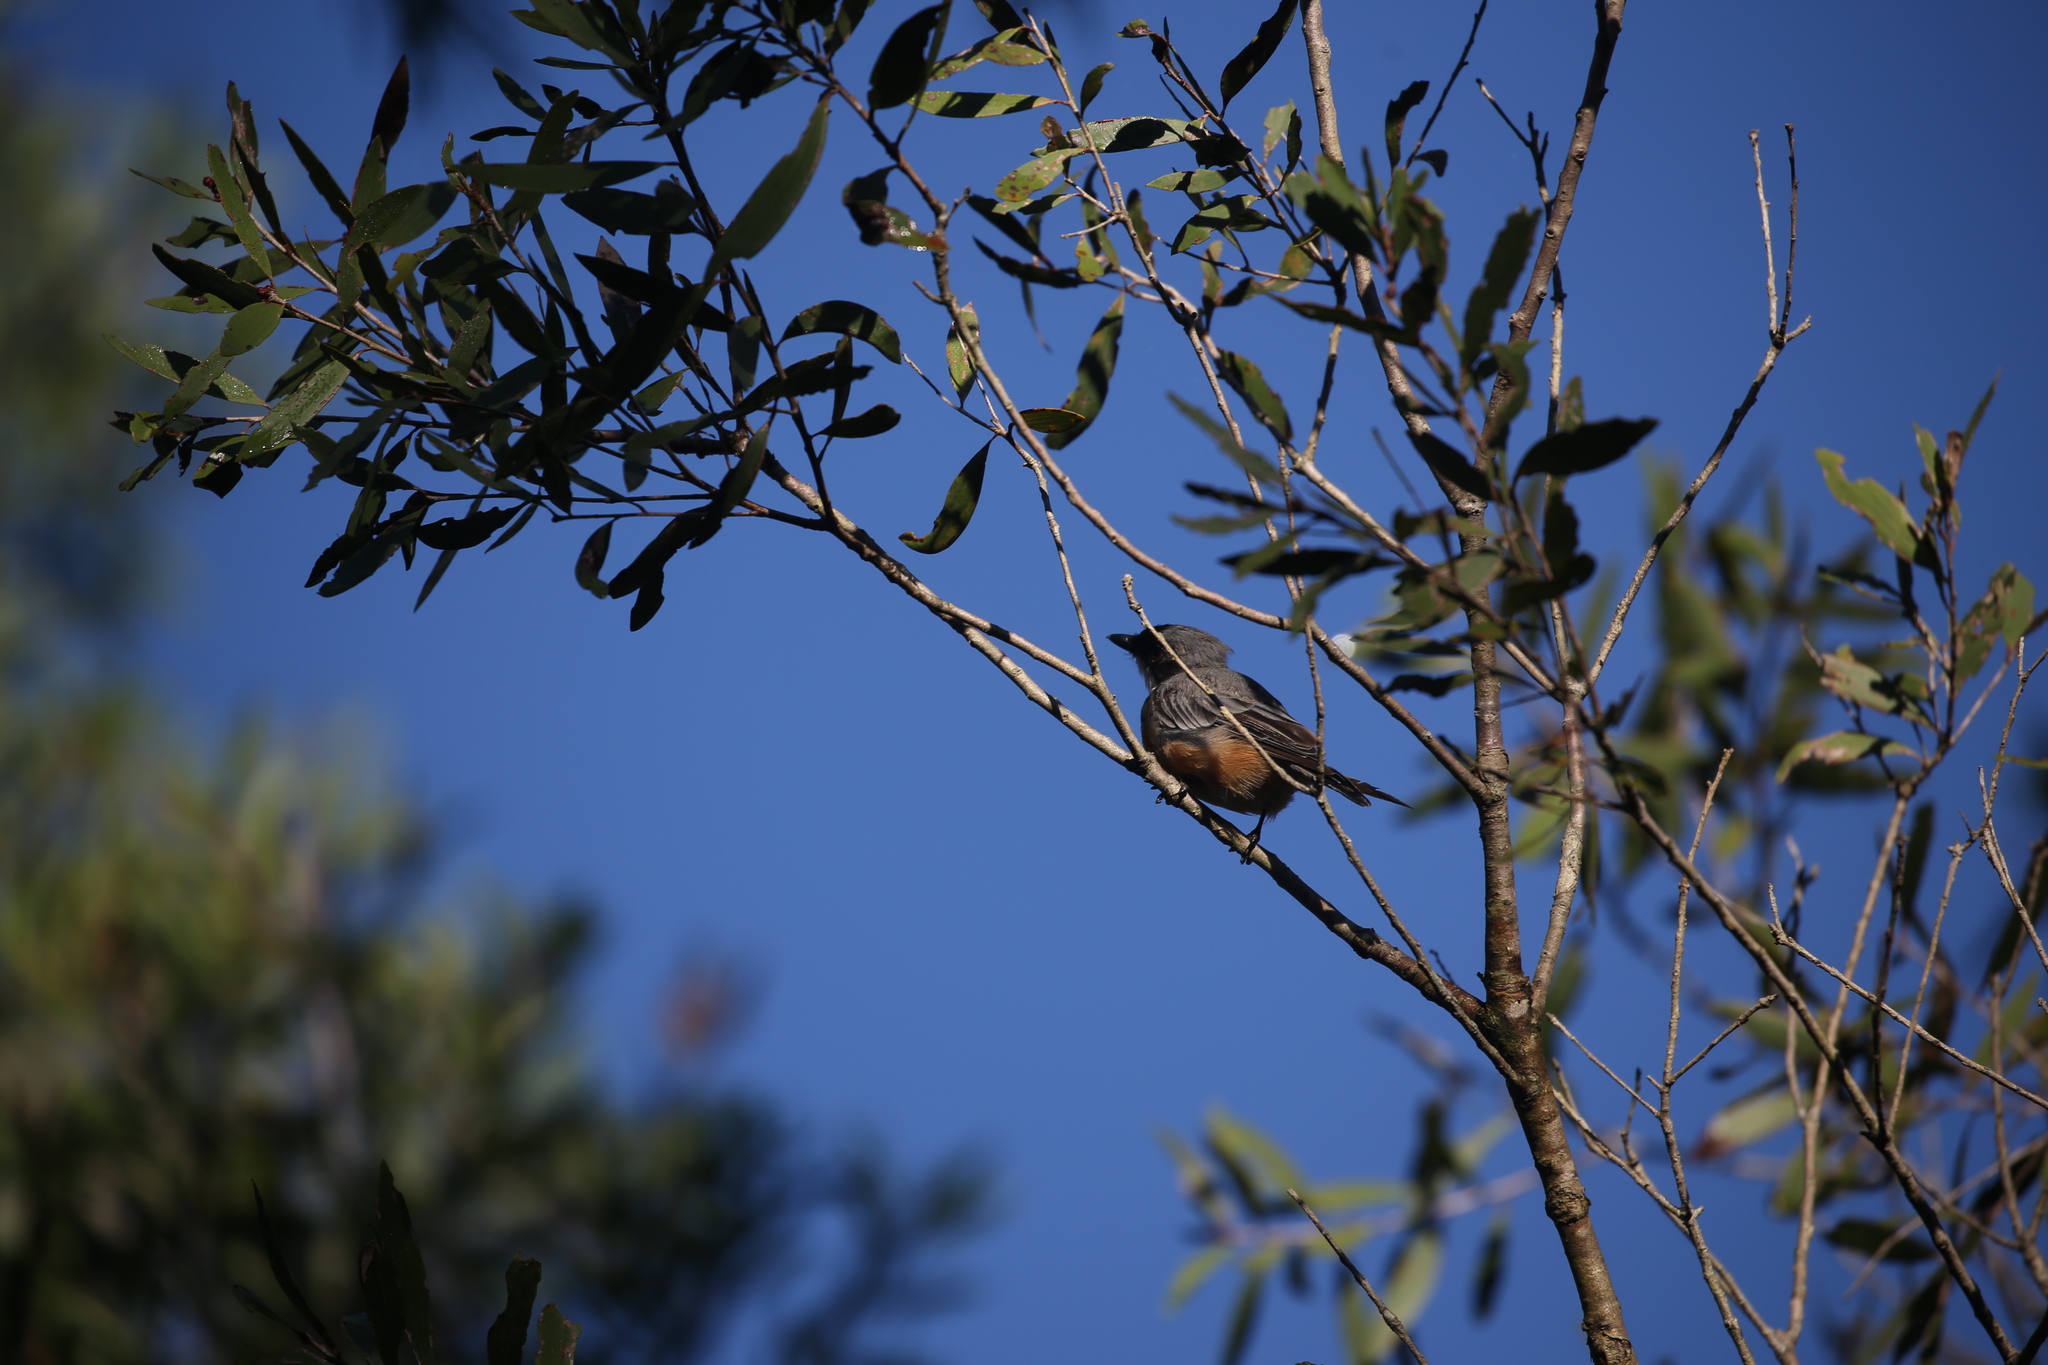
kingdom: Animalia
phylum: Chordata
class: Aves
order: Passeriformes
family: Pachycephalidae
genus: Pachycephala
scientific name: Pachycephala rufiventris
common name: Rufous whistler
